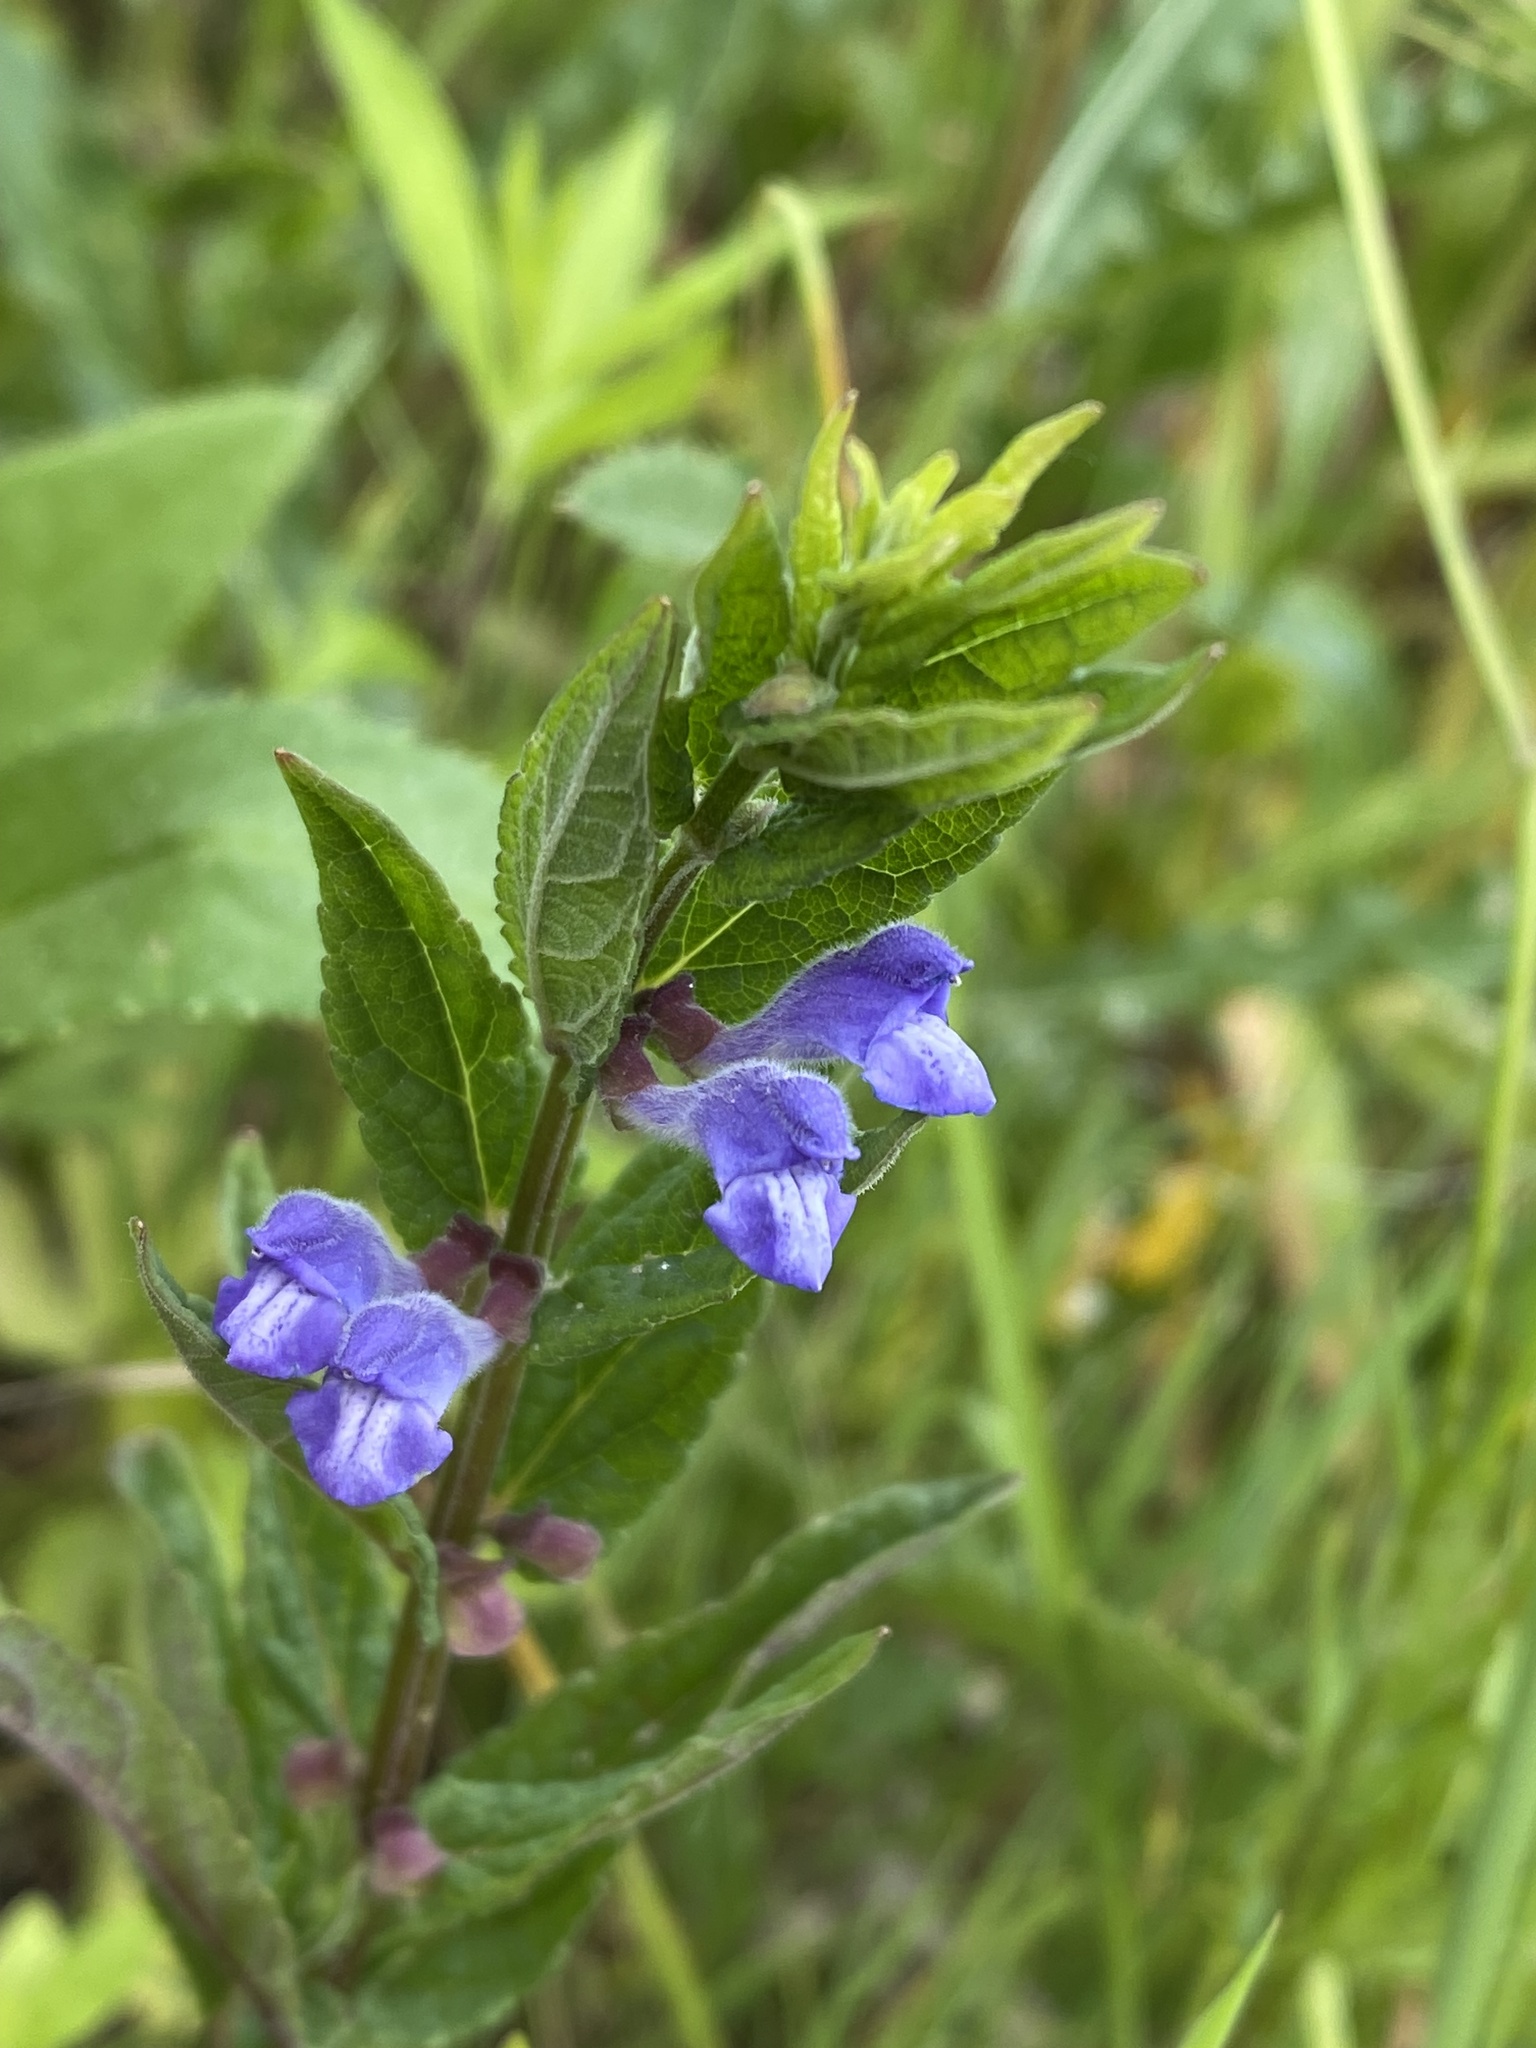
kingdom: Plantae
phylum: Tracheophyta
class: Magnoliopsida
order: Lamiales
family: Lamiaceae
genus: Scutellaria
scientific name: Scutellaria galericulata
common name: Skullcap
